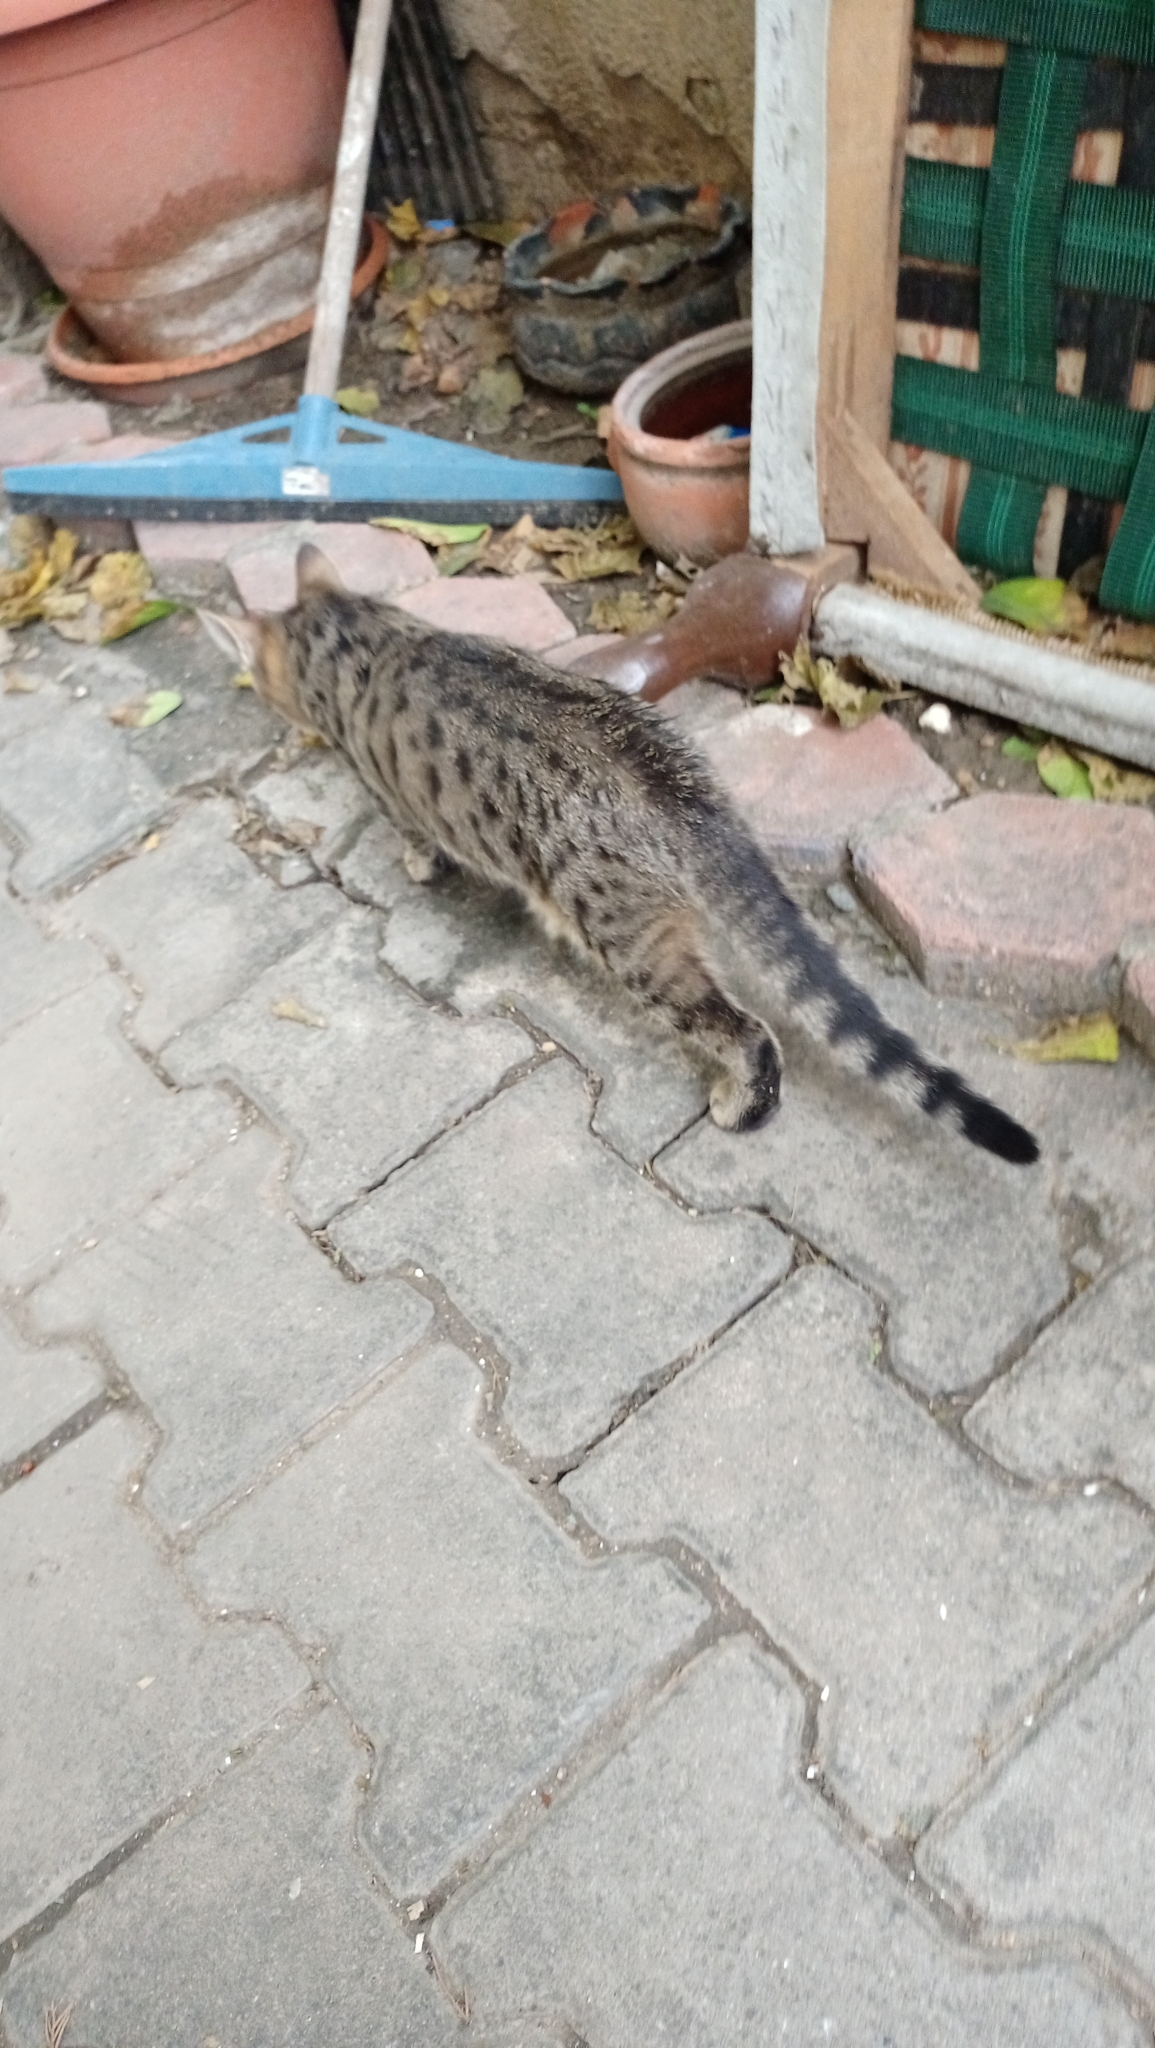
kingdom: Animalia
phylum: Chordata
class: Mammalia
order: Carnivora
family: Felidae
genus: Felis
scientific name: Felis catus
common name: Domestic cat
